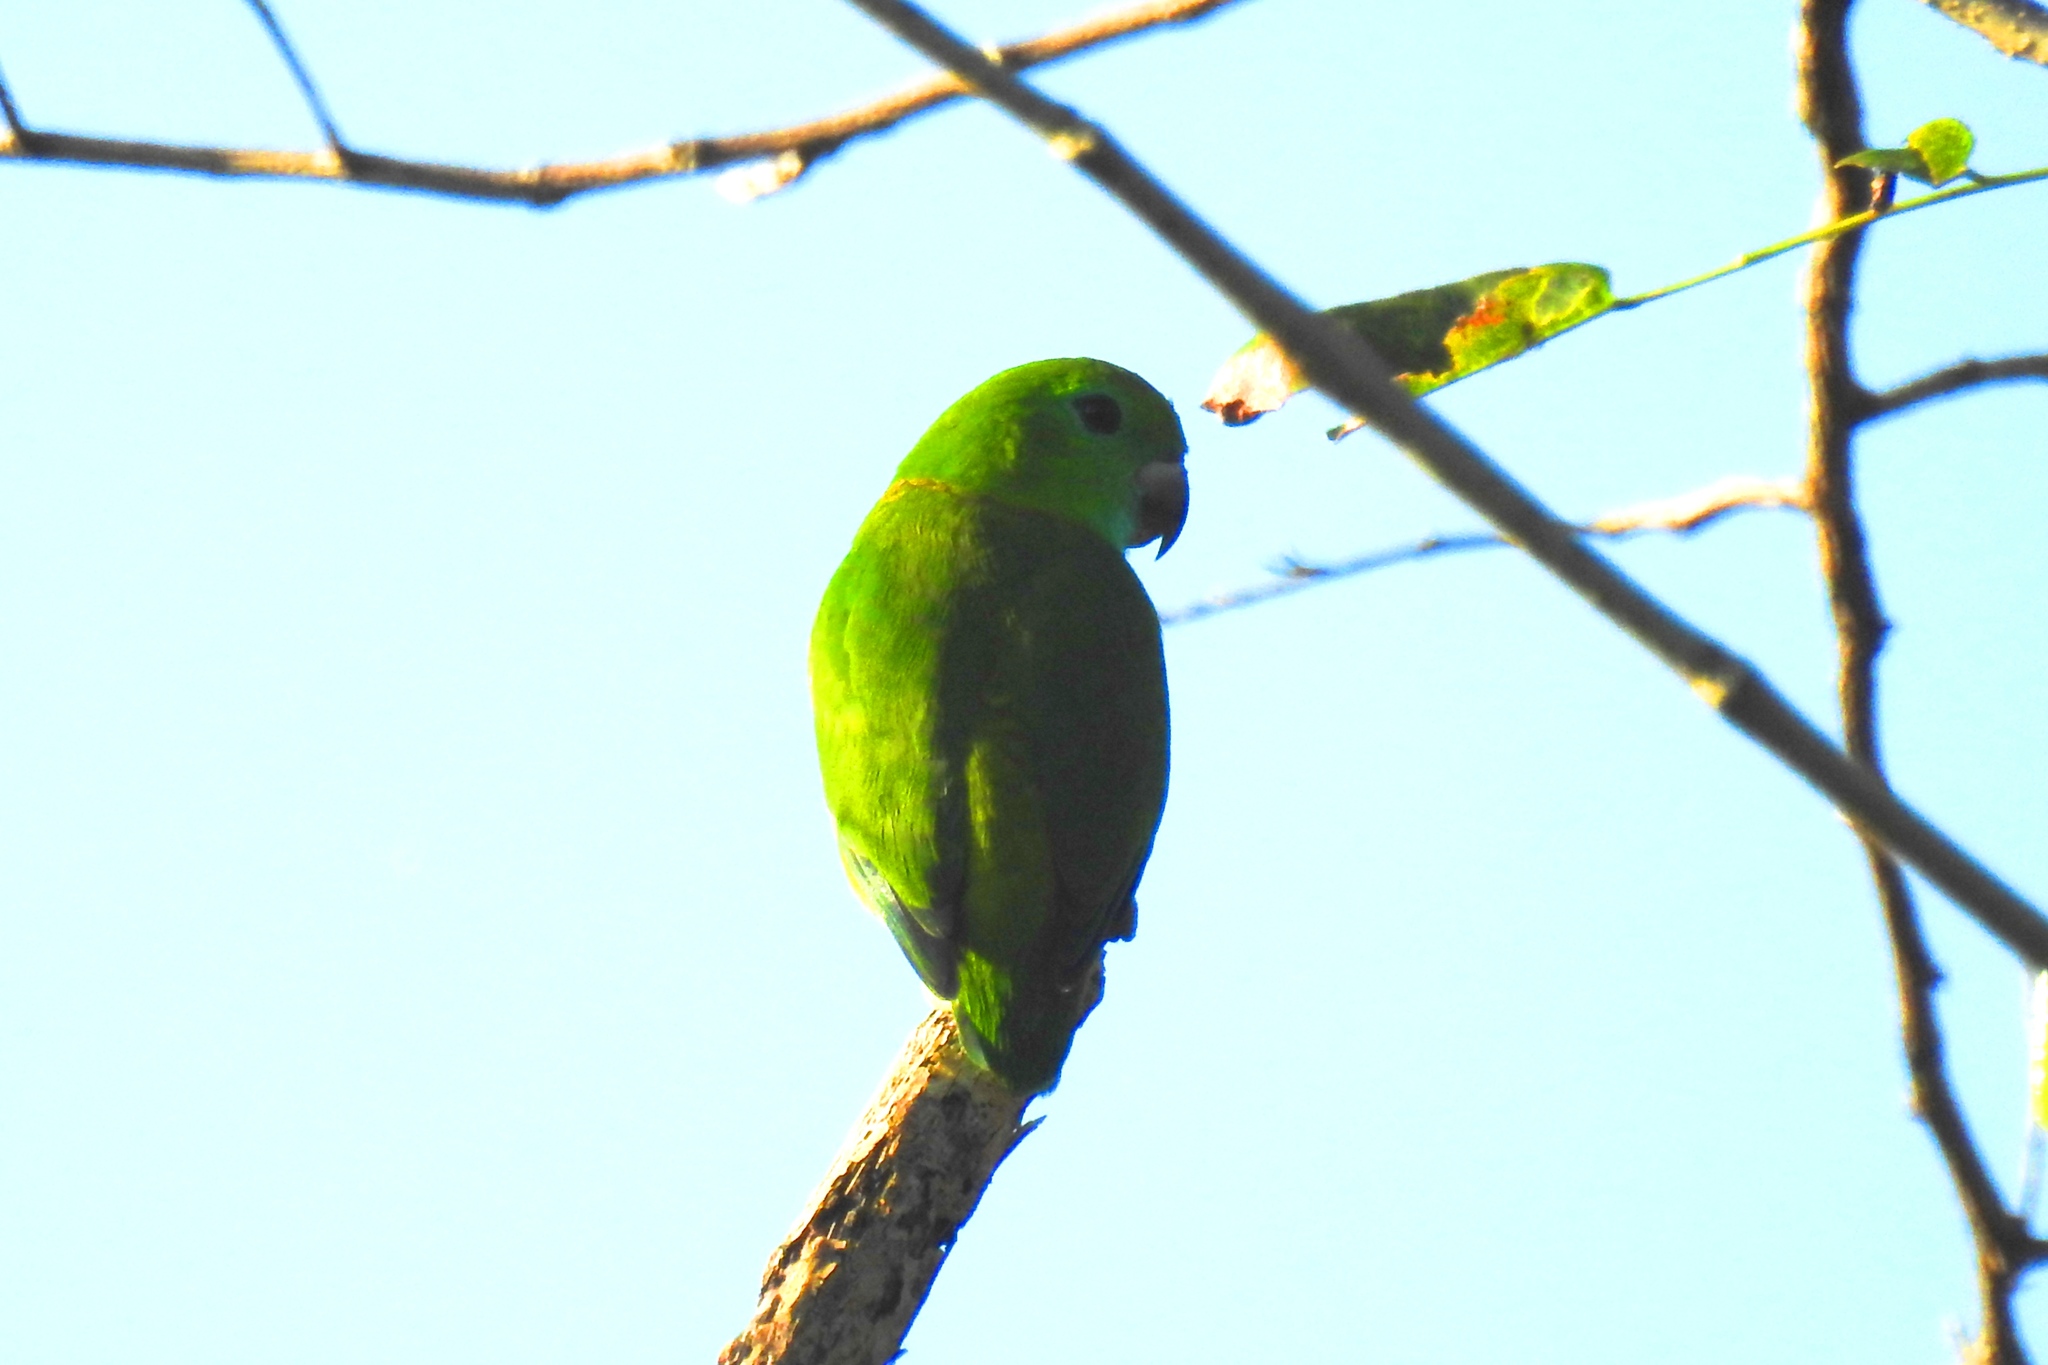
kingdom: Animalia
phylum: Chordata
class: Aves
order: Psittaciformes
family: Psittacidae
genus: Bolbopsittacus
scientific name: Bolbopsittacus lunulatus
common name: Guaiabero
